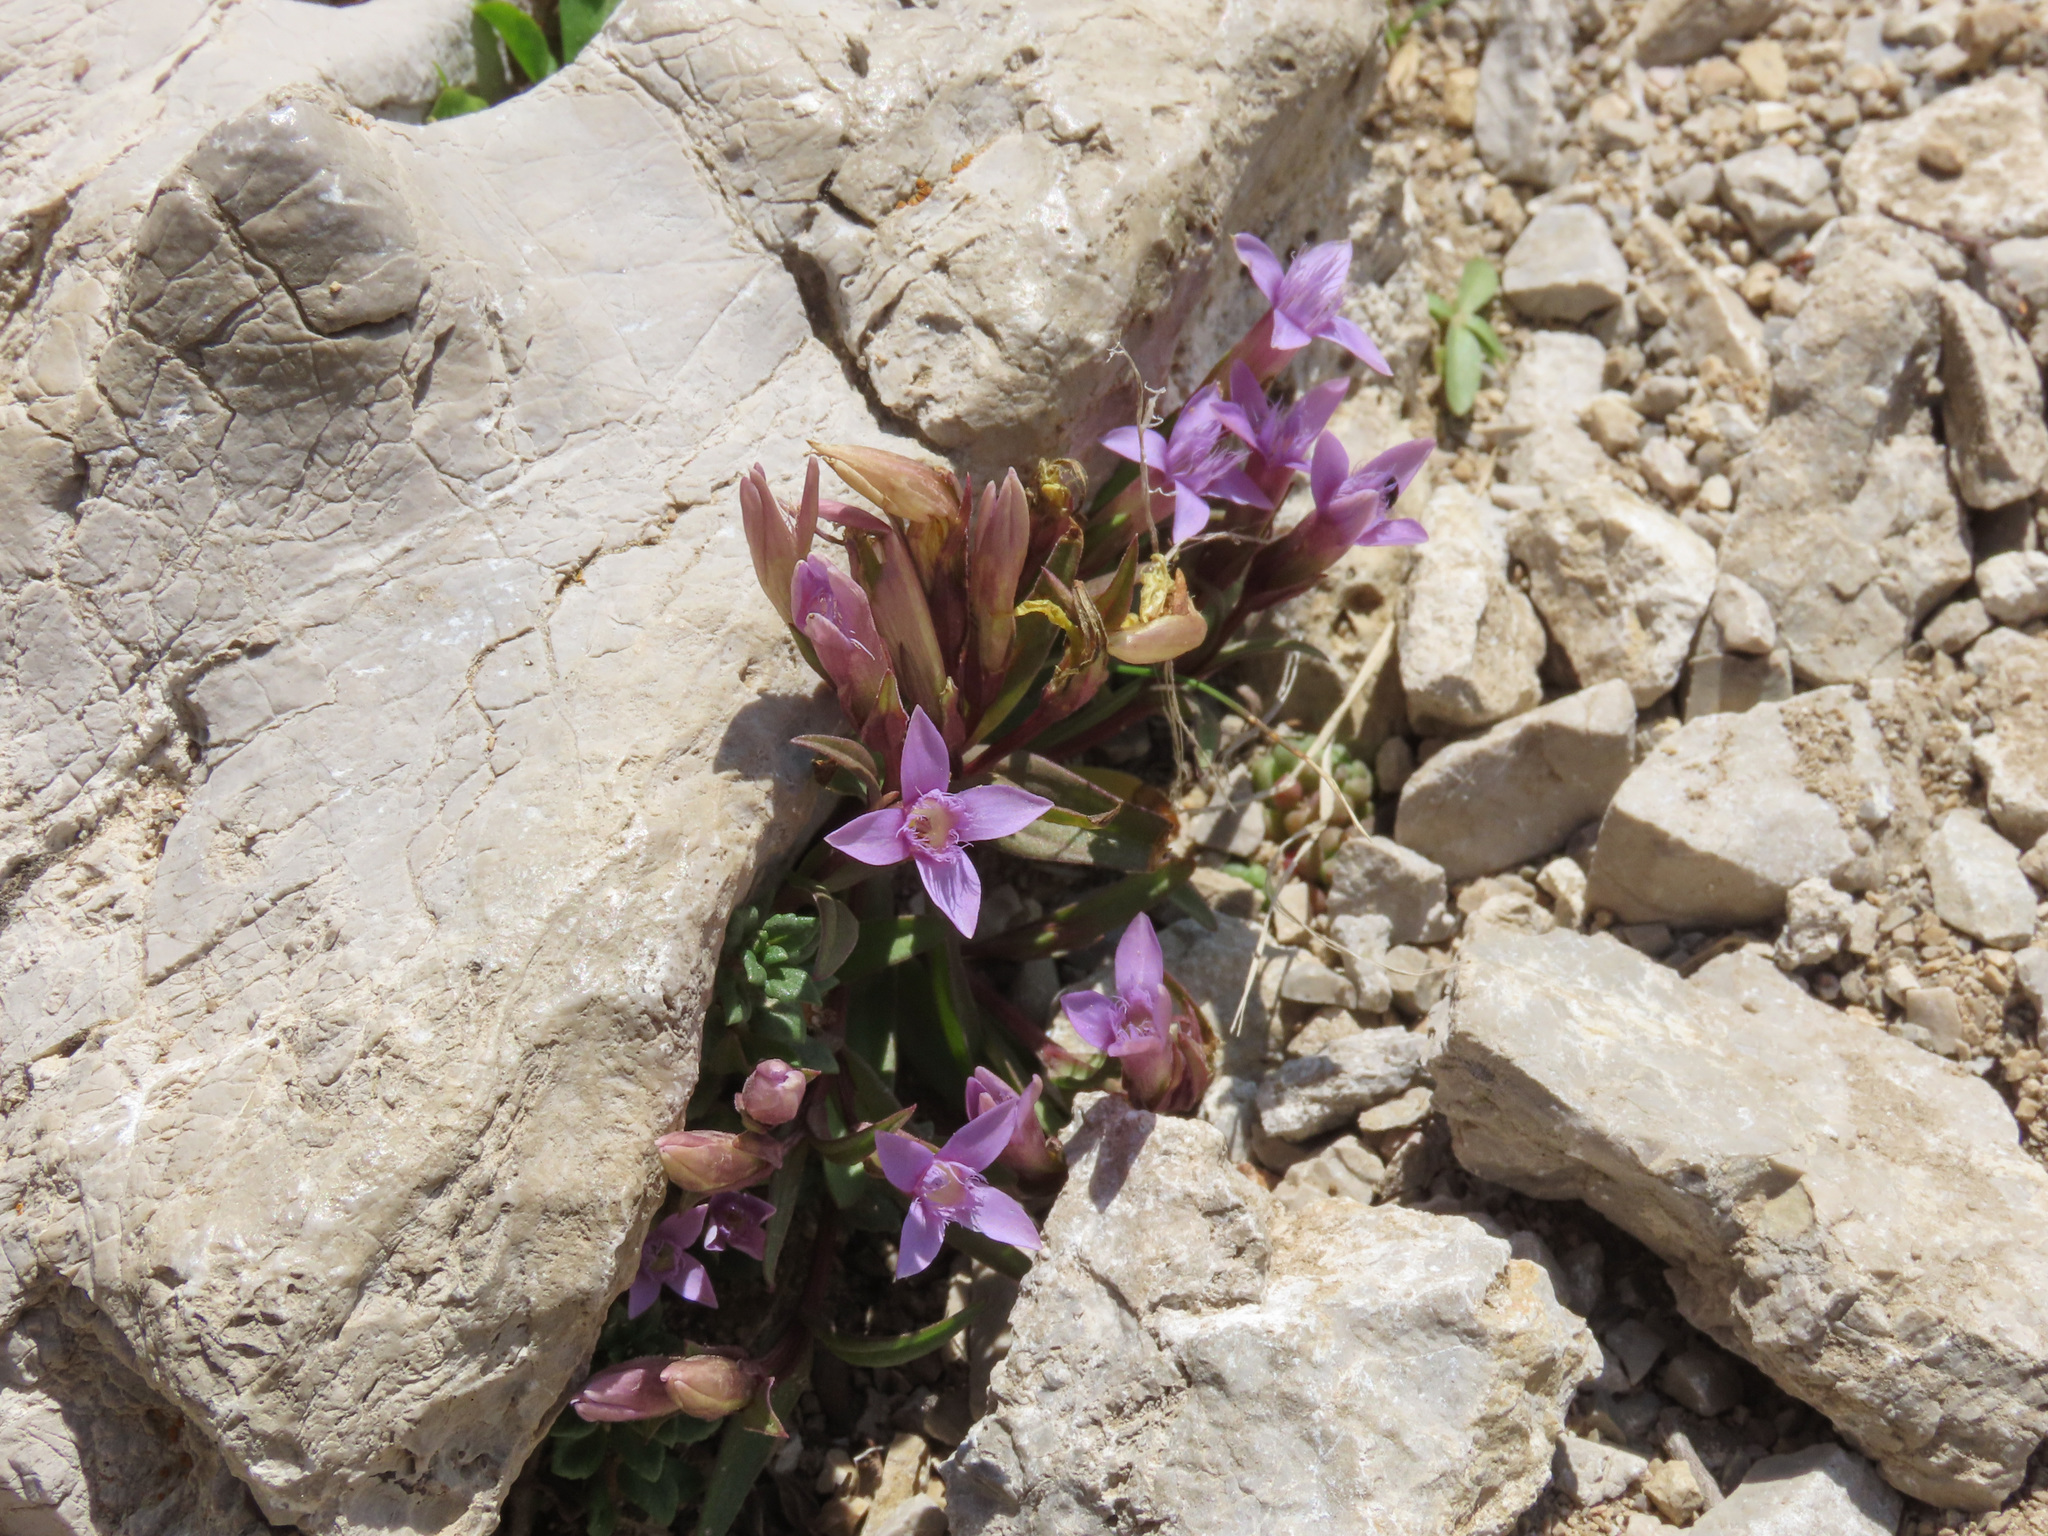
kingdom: Plantae
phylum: Tracheophyta
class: Magnoliopsida
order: Gentianales
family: Gentianaceae
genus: Gentianella
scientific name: Gentianella columnae
